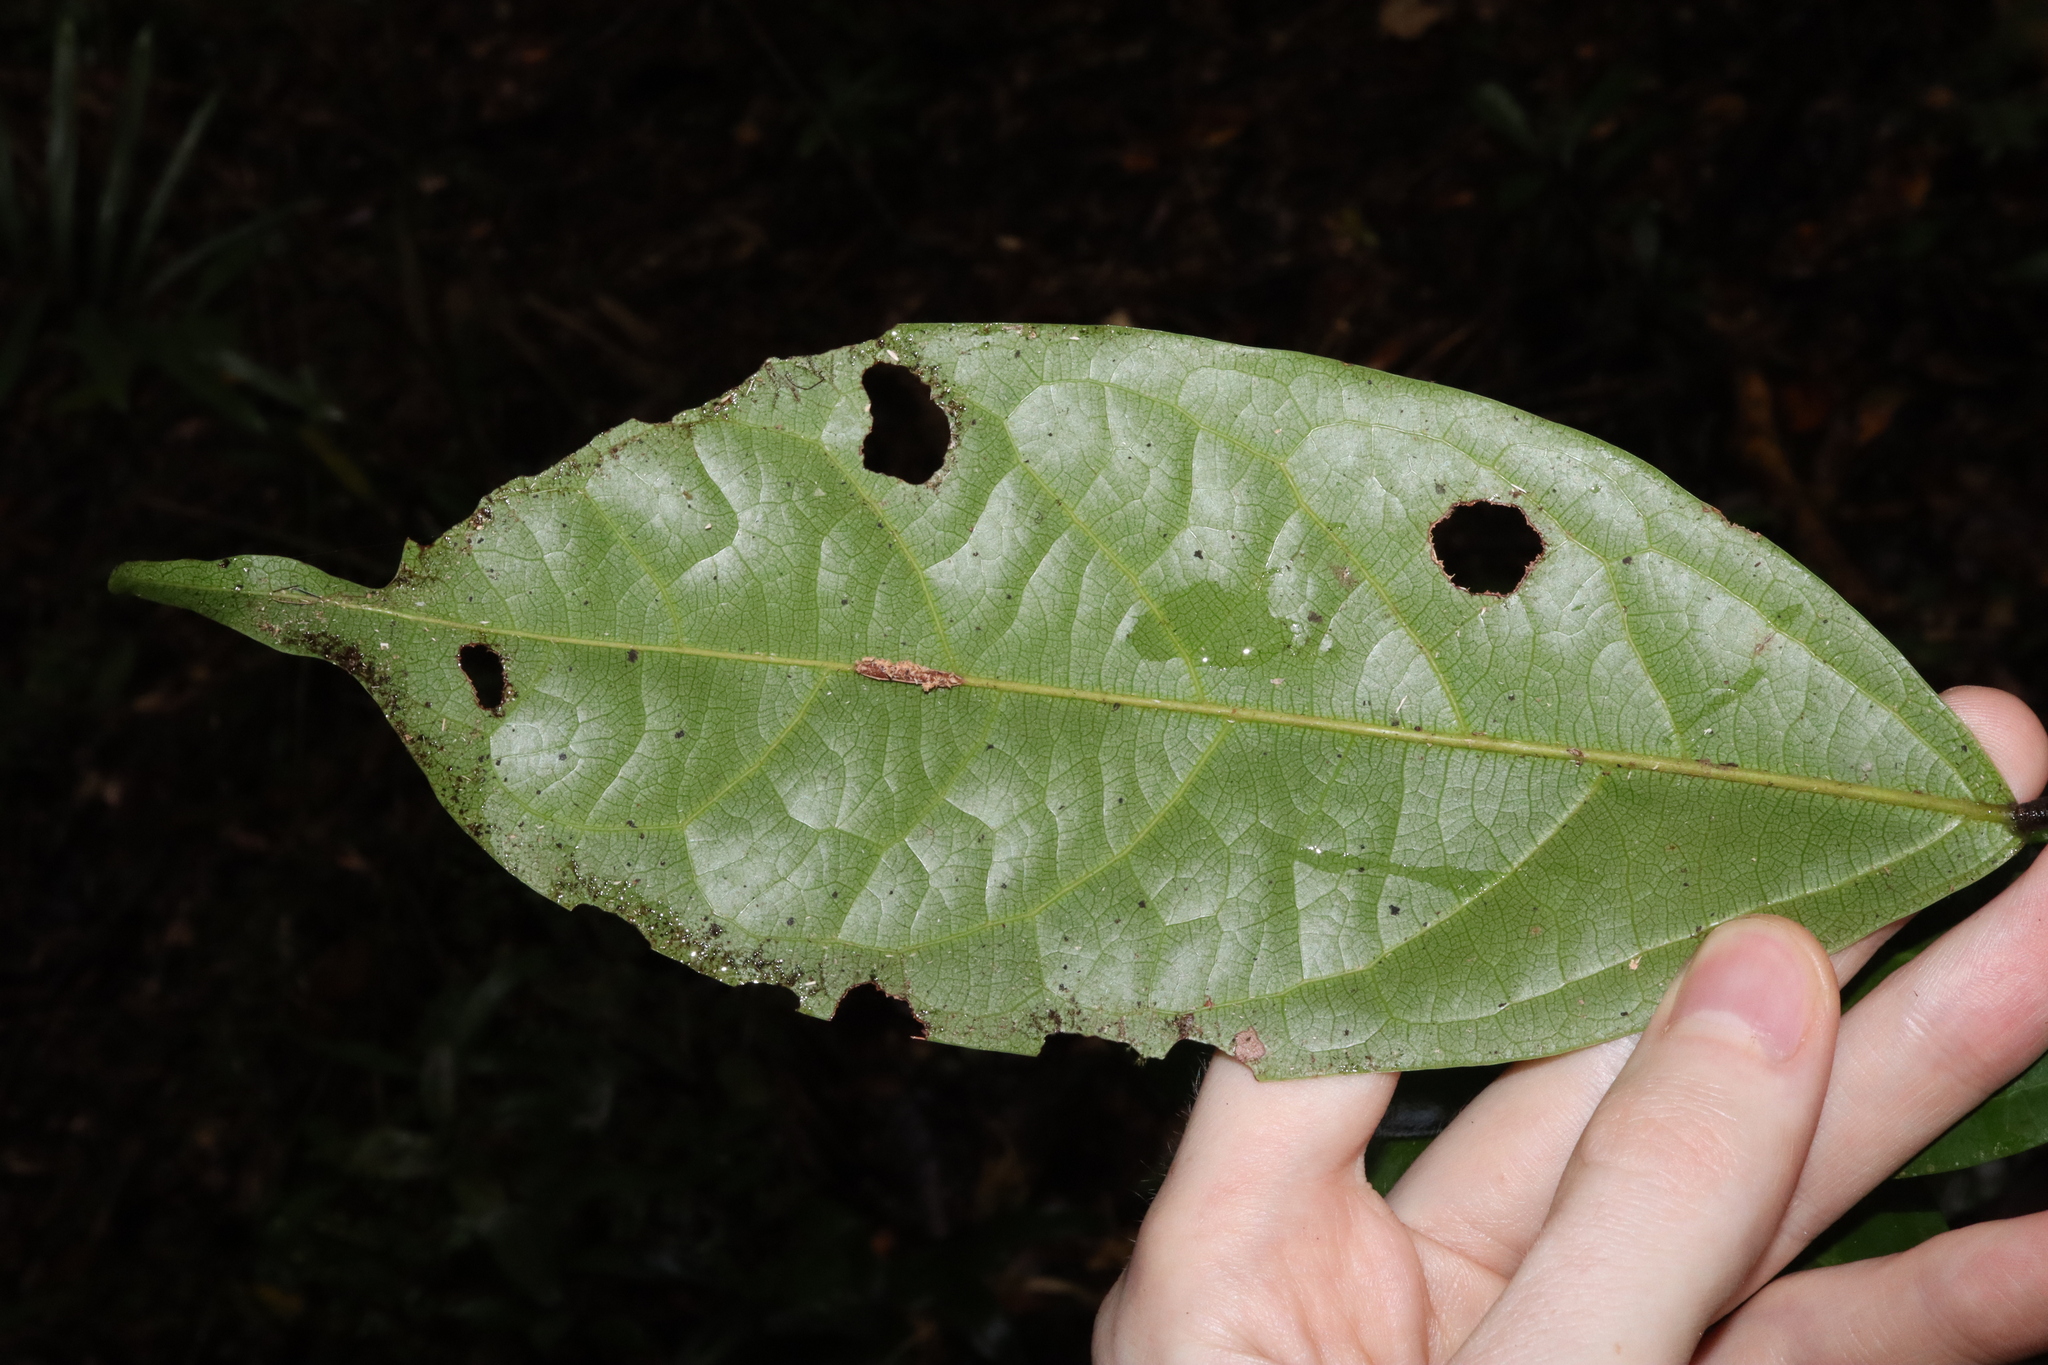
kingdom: Plantae
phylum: Tracheophyta
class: Magnoliopsida
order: Oxalidales
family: Connaraceae
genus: Connarus
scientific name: Connarus conchocarpus
